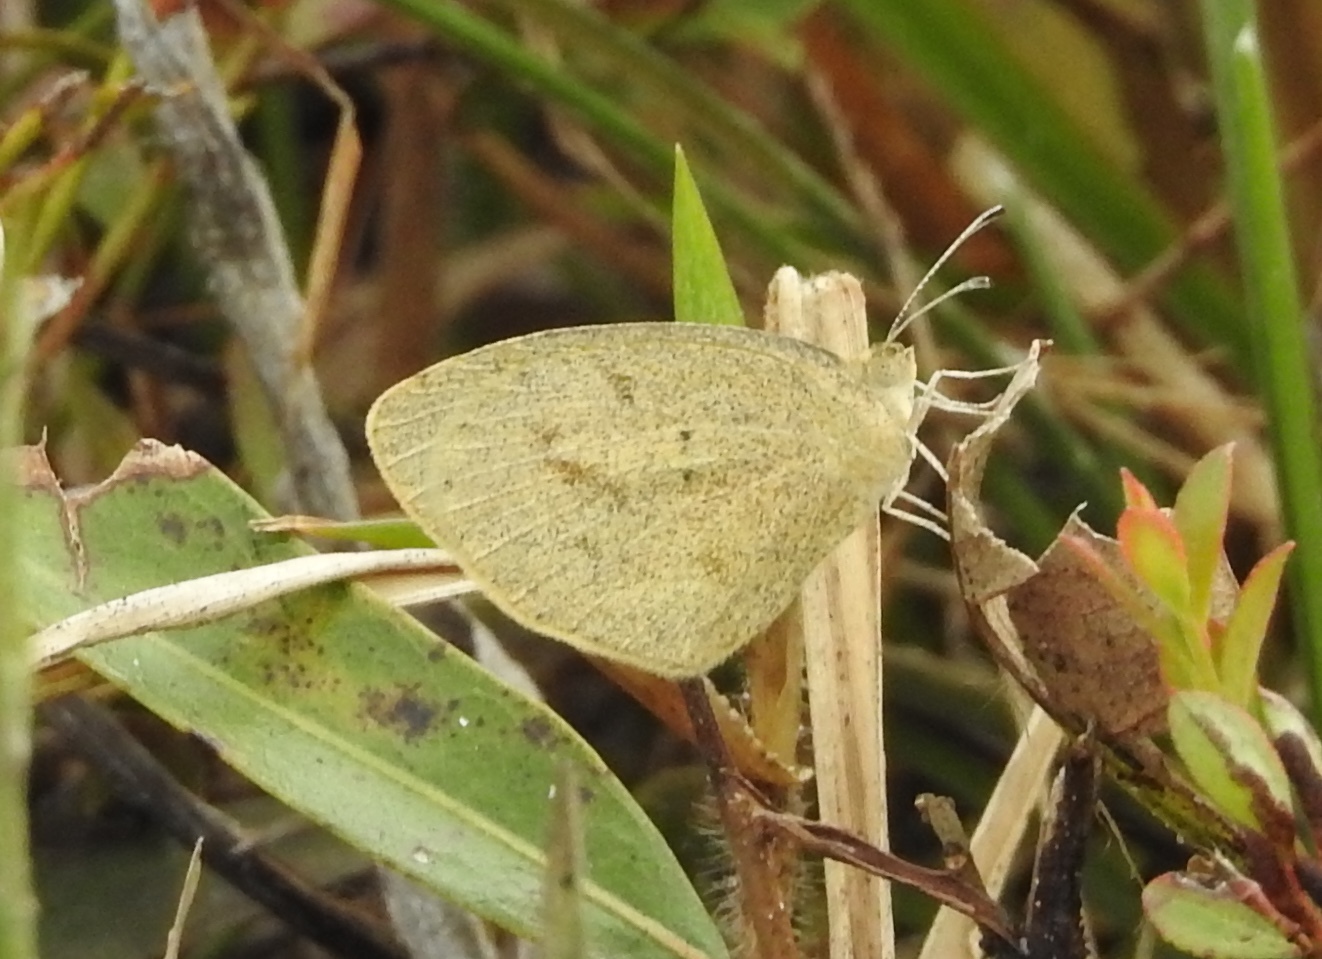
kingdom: Animalia
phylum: Arthropoda
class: Insecta
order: Lepidoptera
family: Pieridae
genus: Eurema
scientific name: Eurema daira
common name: Barred sulphur
